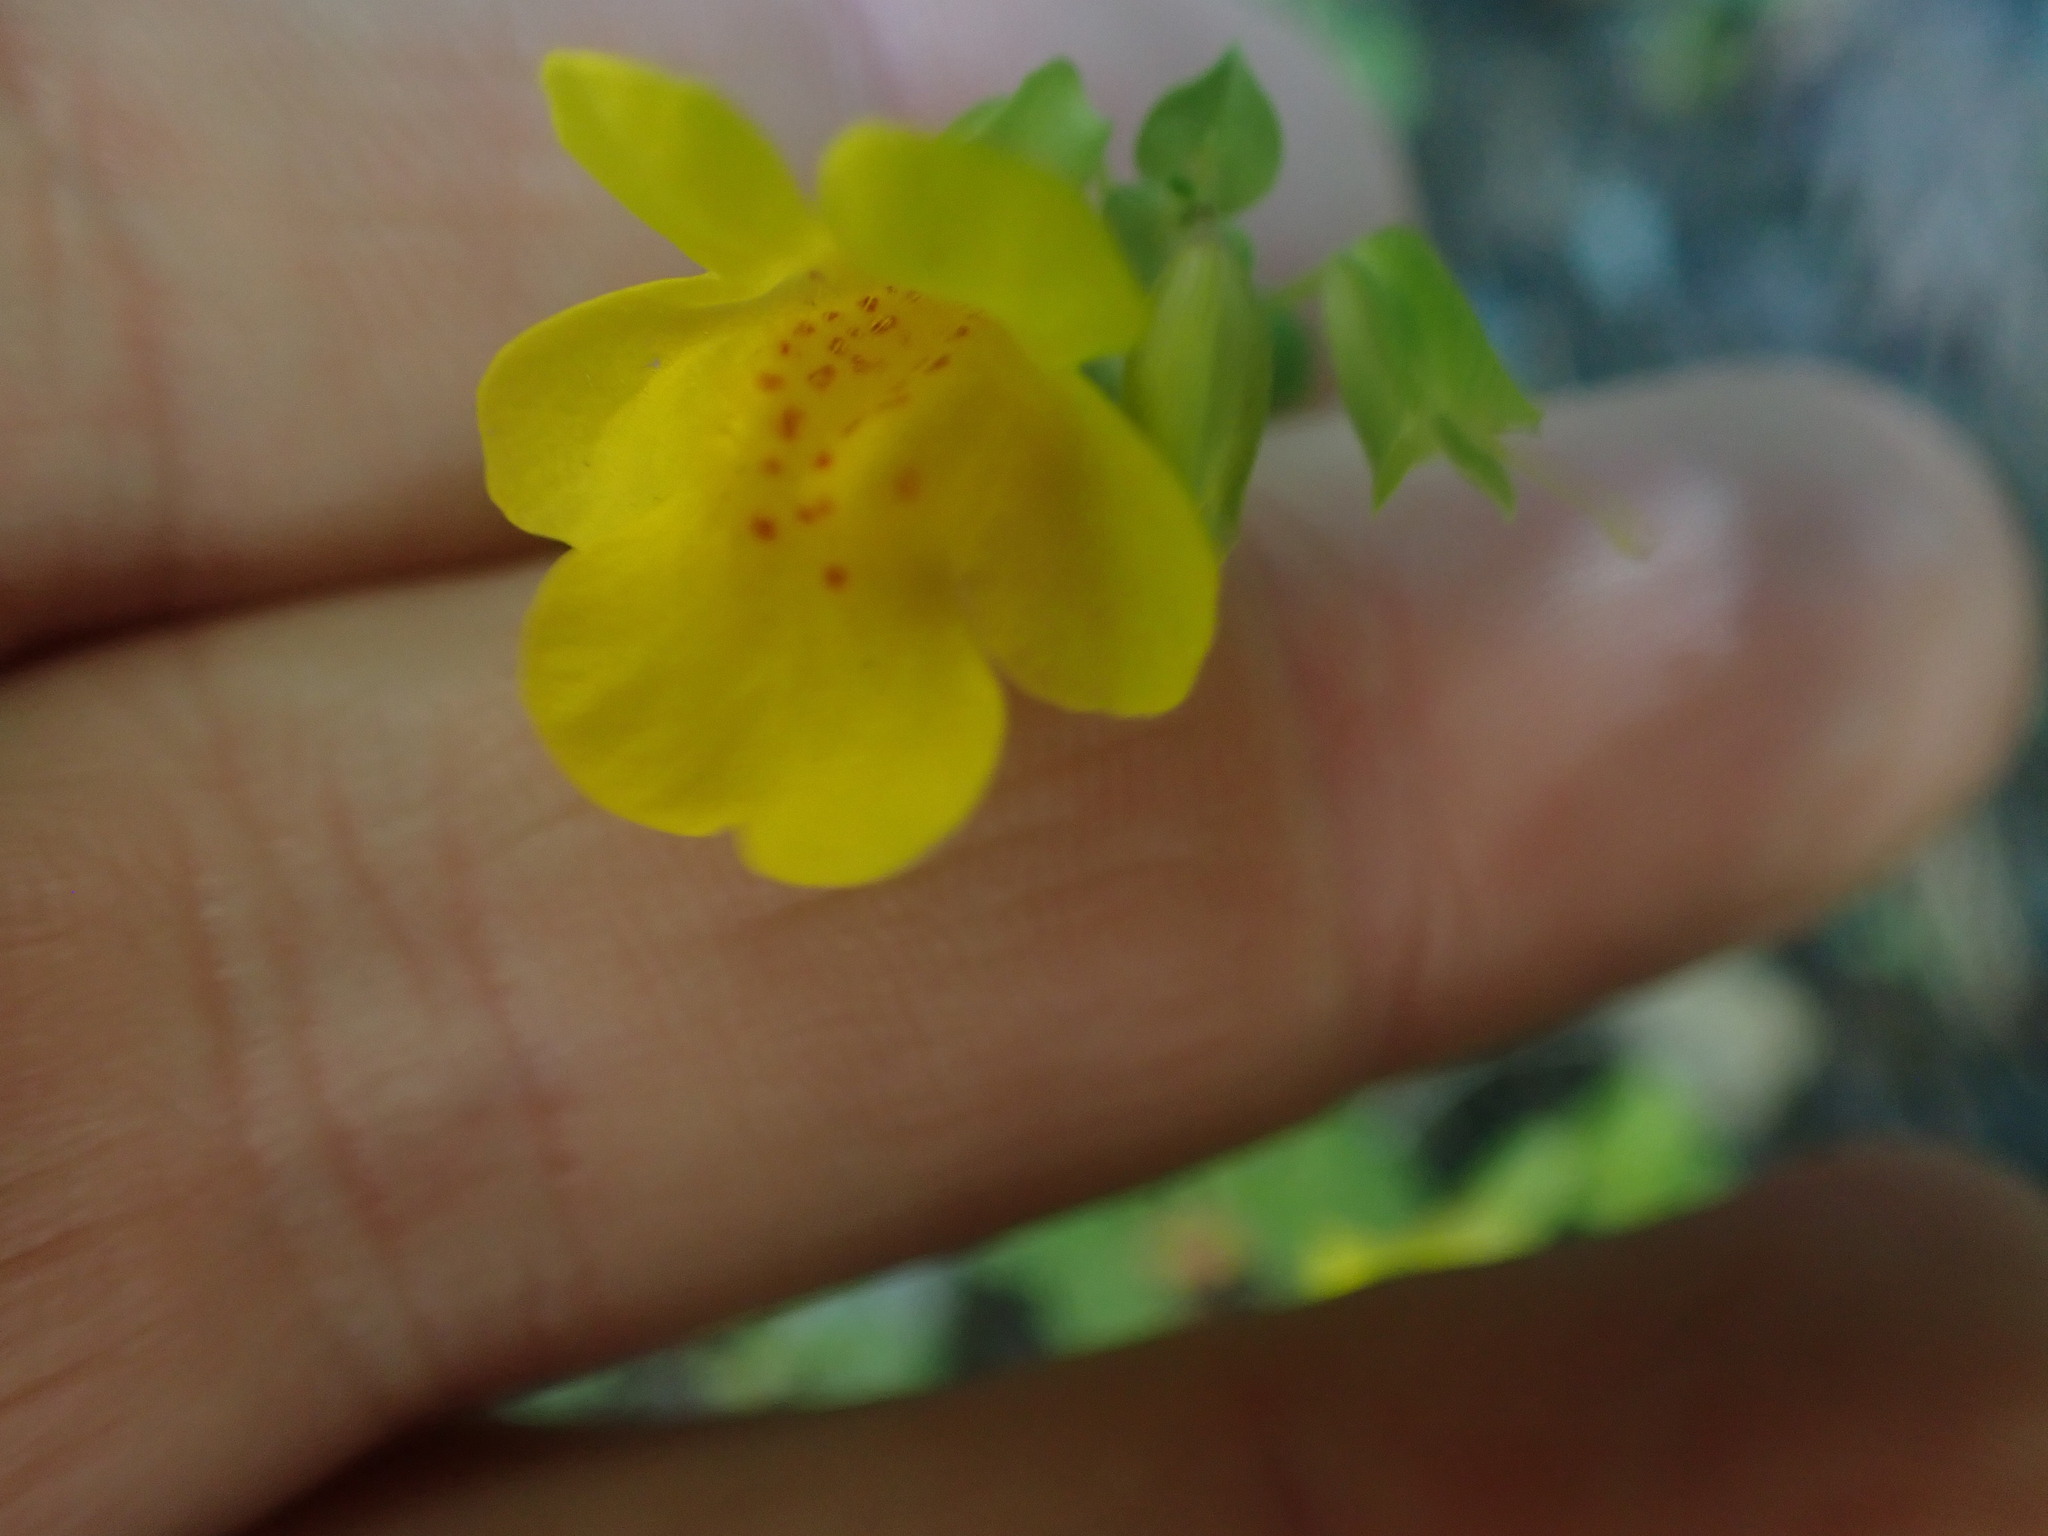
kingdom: Plantae
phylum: Tracheophyta
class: Magnoliopsida
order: Lamiales
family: Phrymaceae
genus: Erythranthe
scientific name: Erythranthe guttata
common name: Monkeyflower
